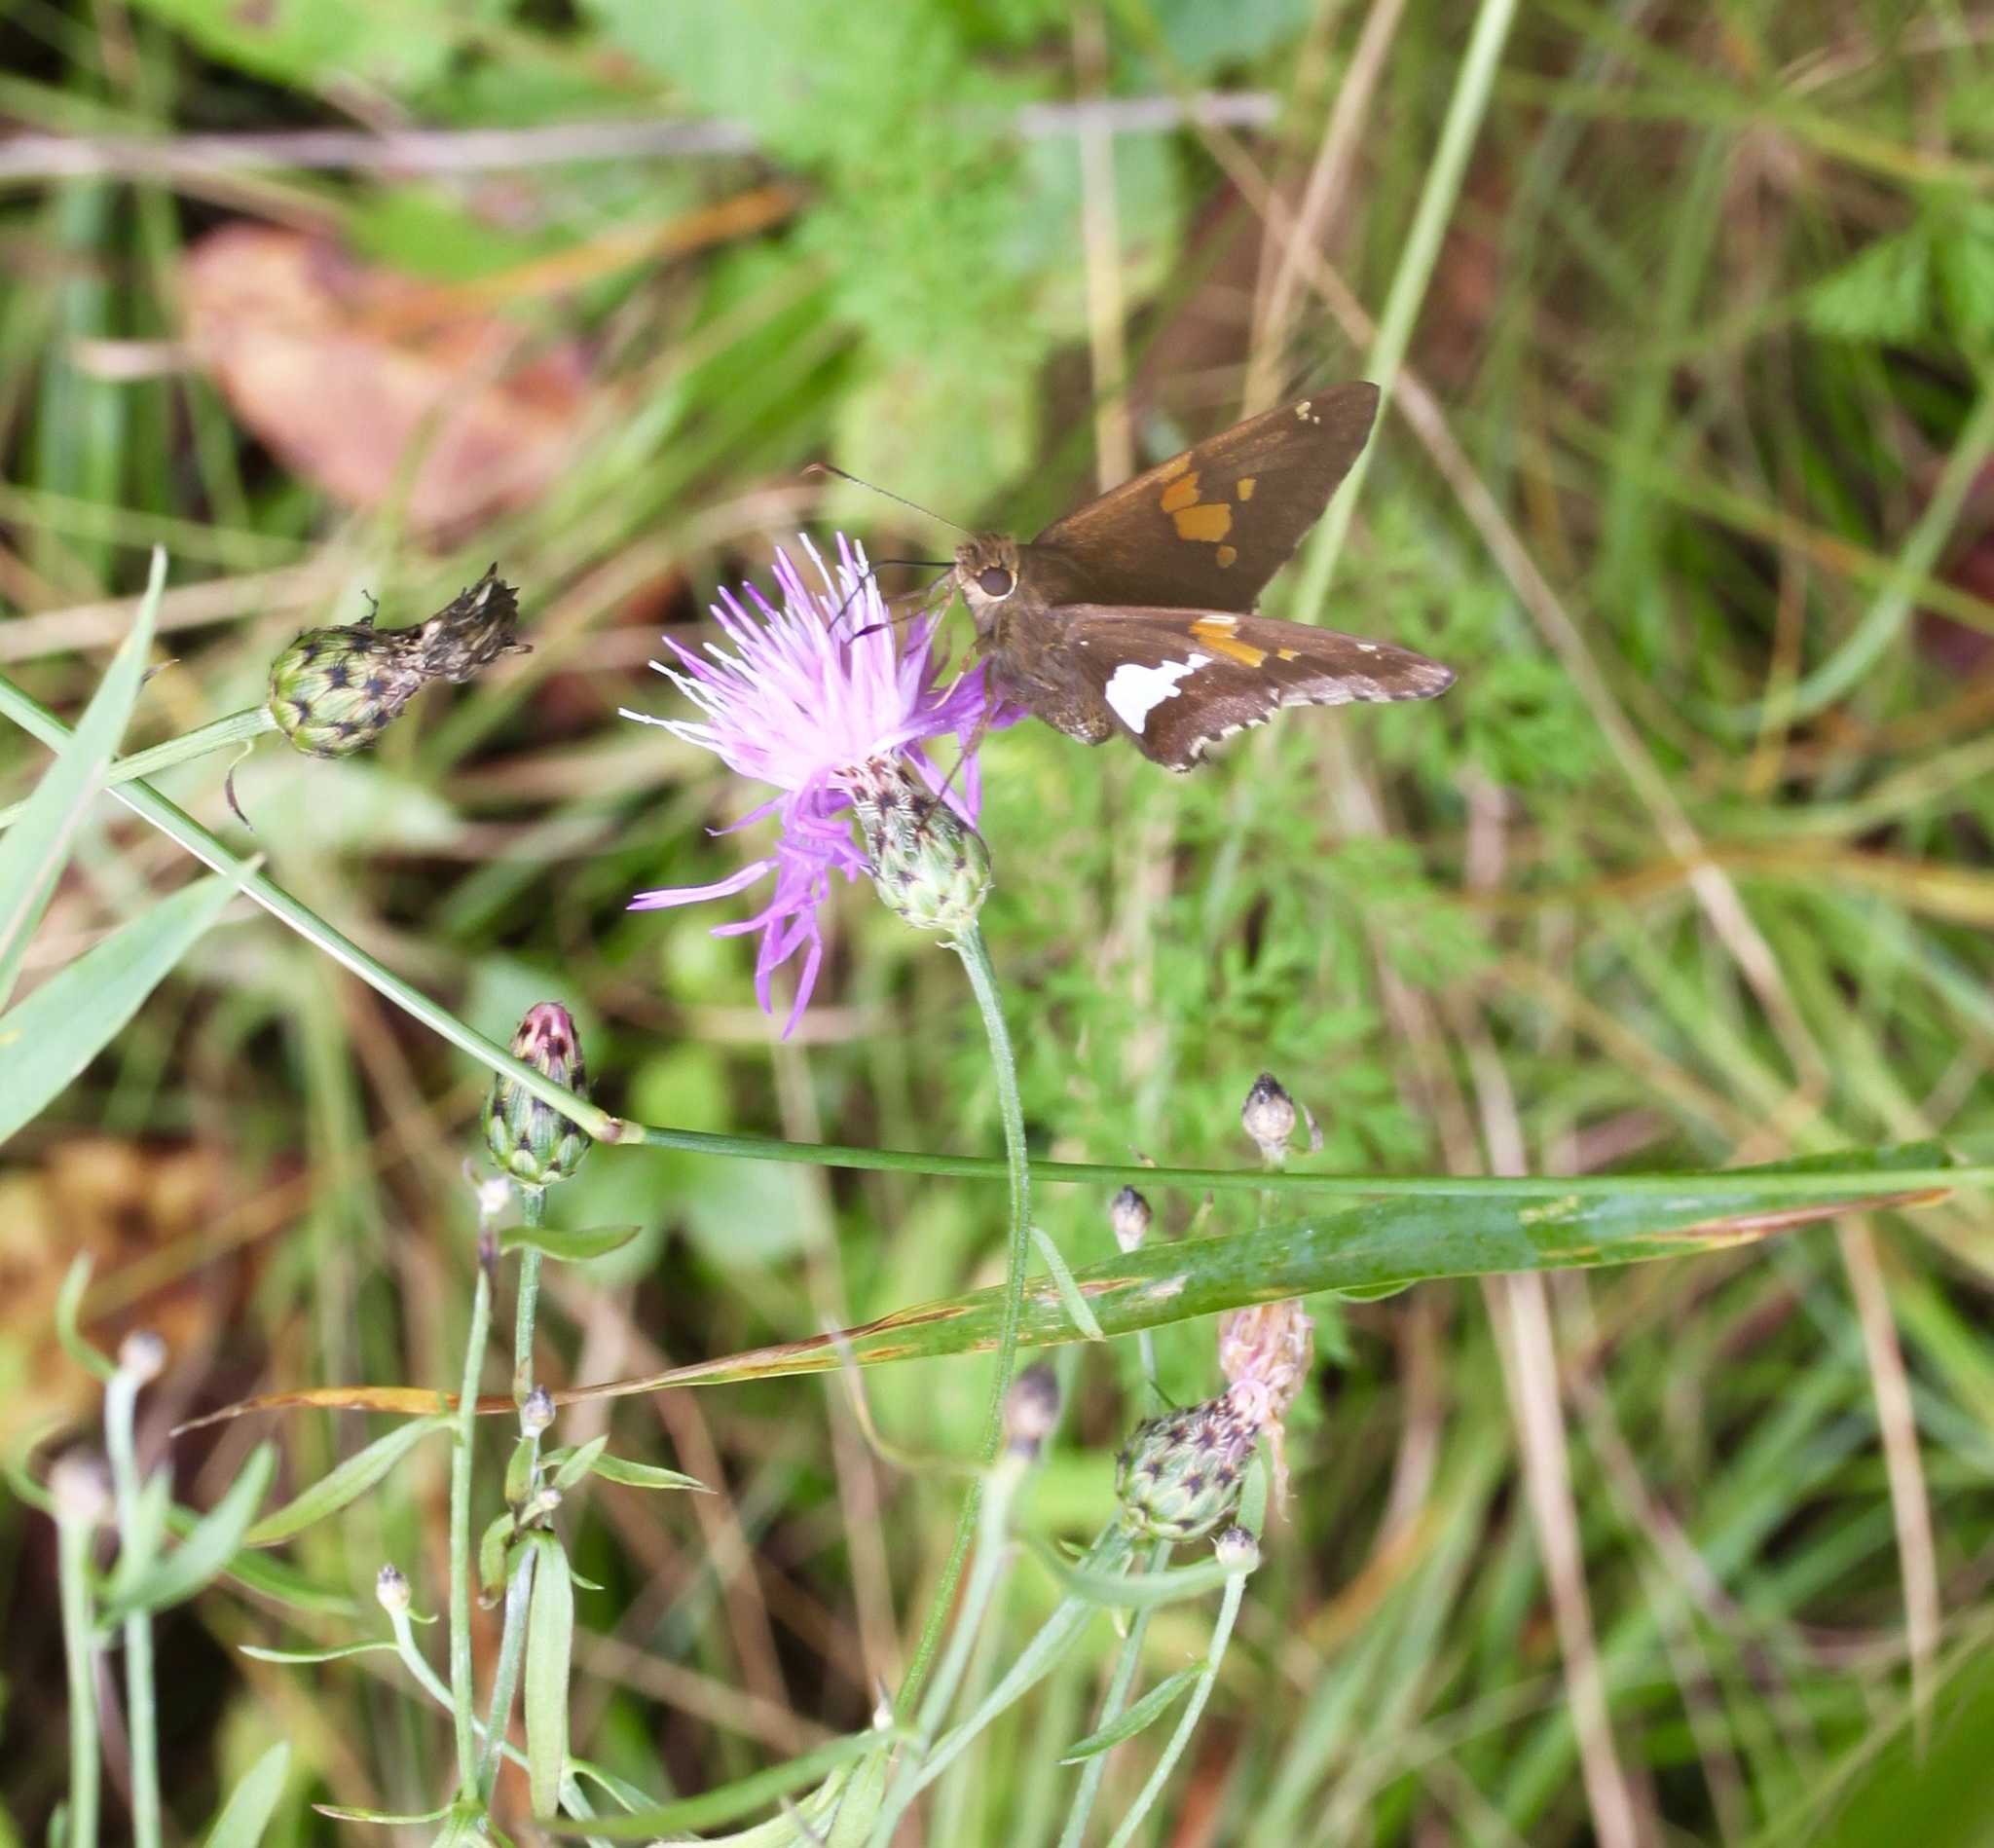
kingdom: Animalia
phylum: Arthropoda
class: Insecta
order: Lepidoptera
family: Hesperiidae
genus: Epargyreus
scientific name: Epargyreus clarus
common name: Silver-spotted skipper
